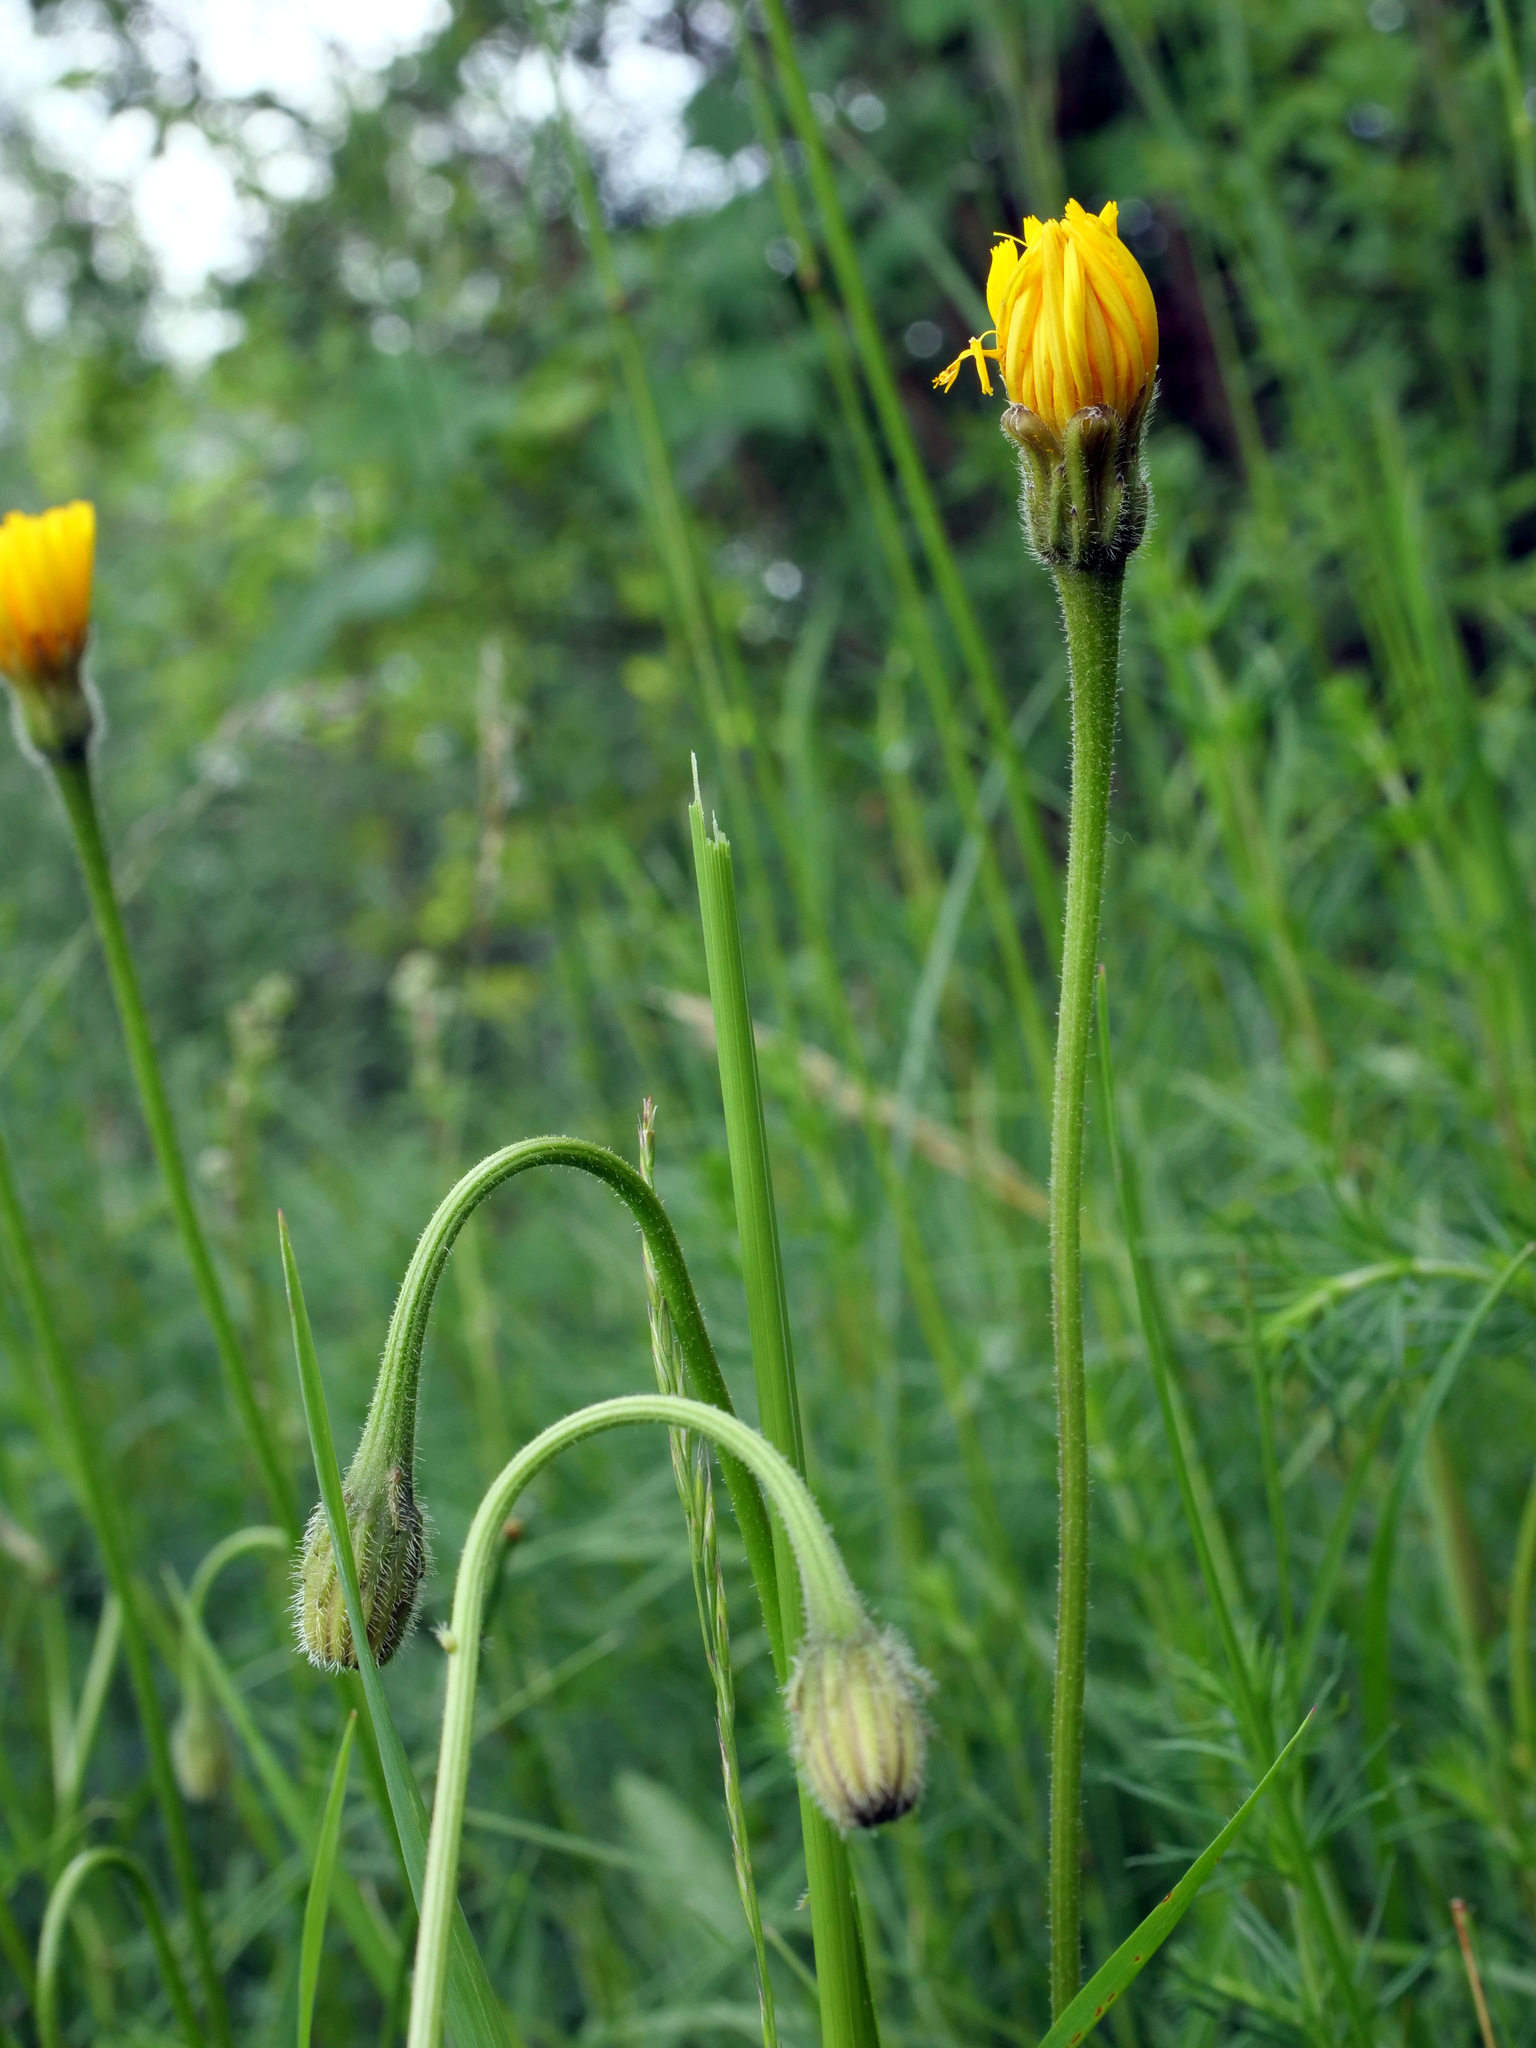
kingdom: Plantae
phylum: Tracheophyta
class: Magnoliopsida
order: Asterales
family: Asteraceae
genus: Leontodon
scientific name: Leontodon hispidus
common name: Rough hawkbit
